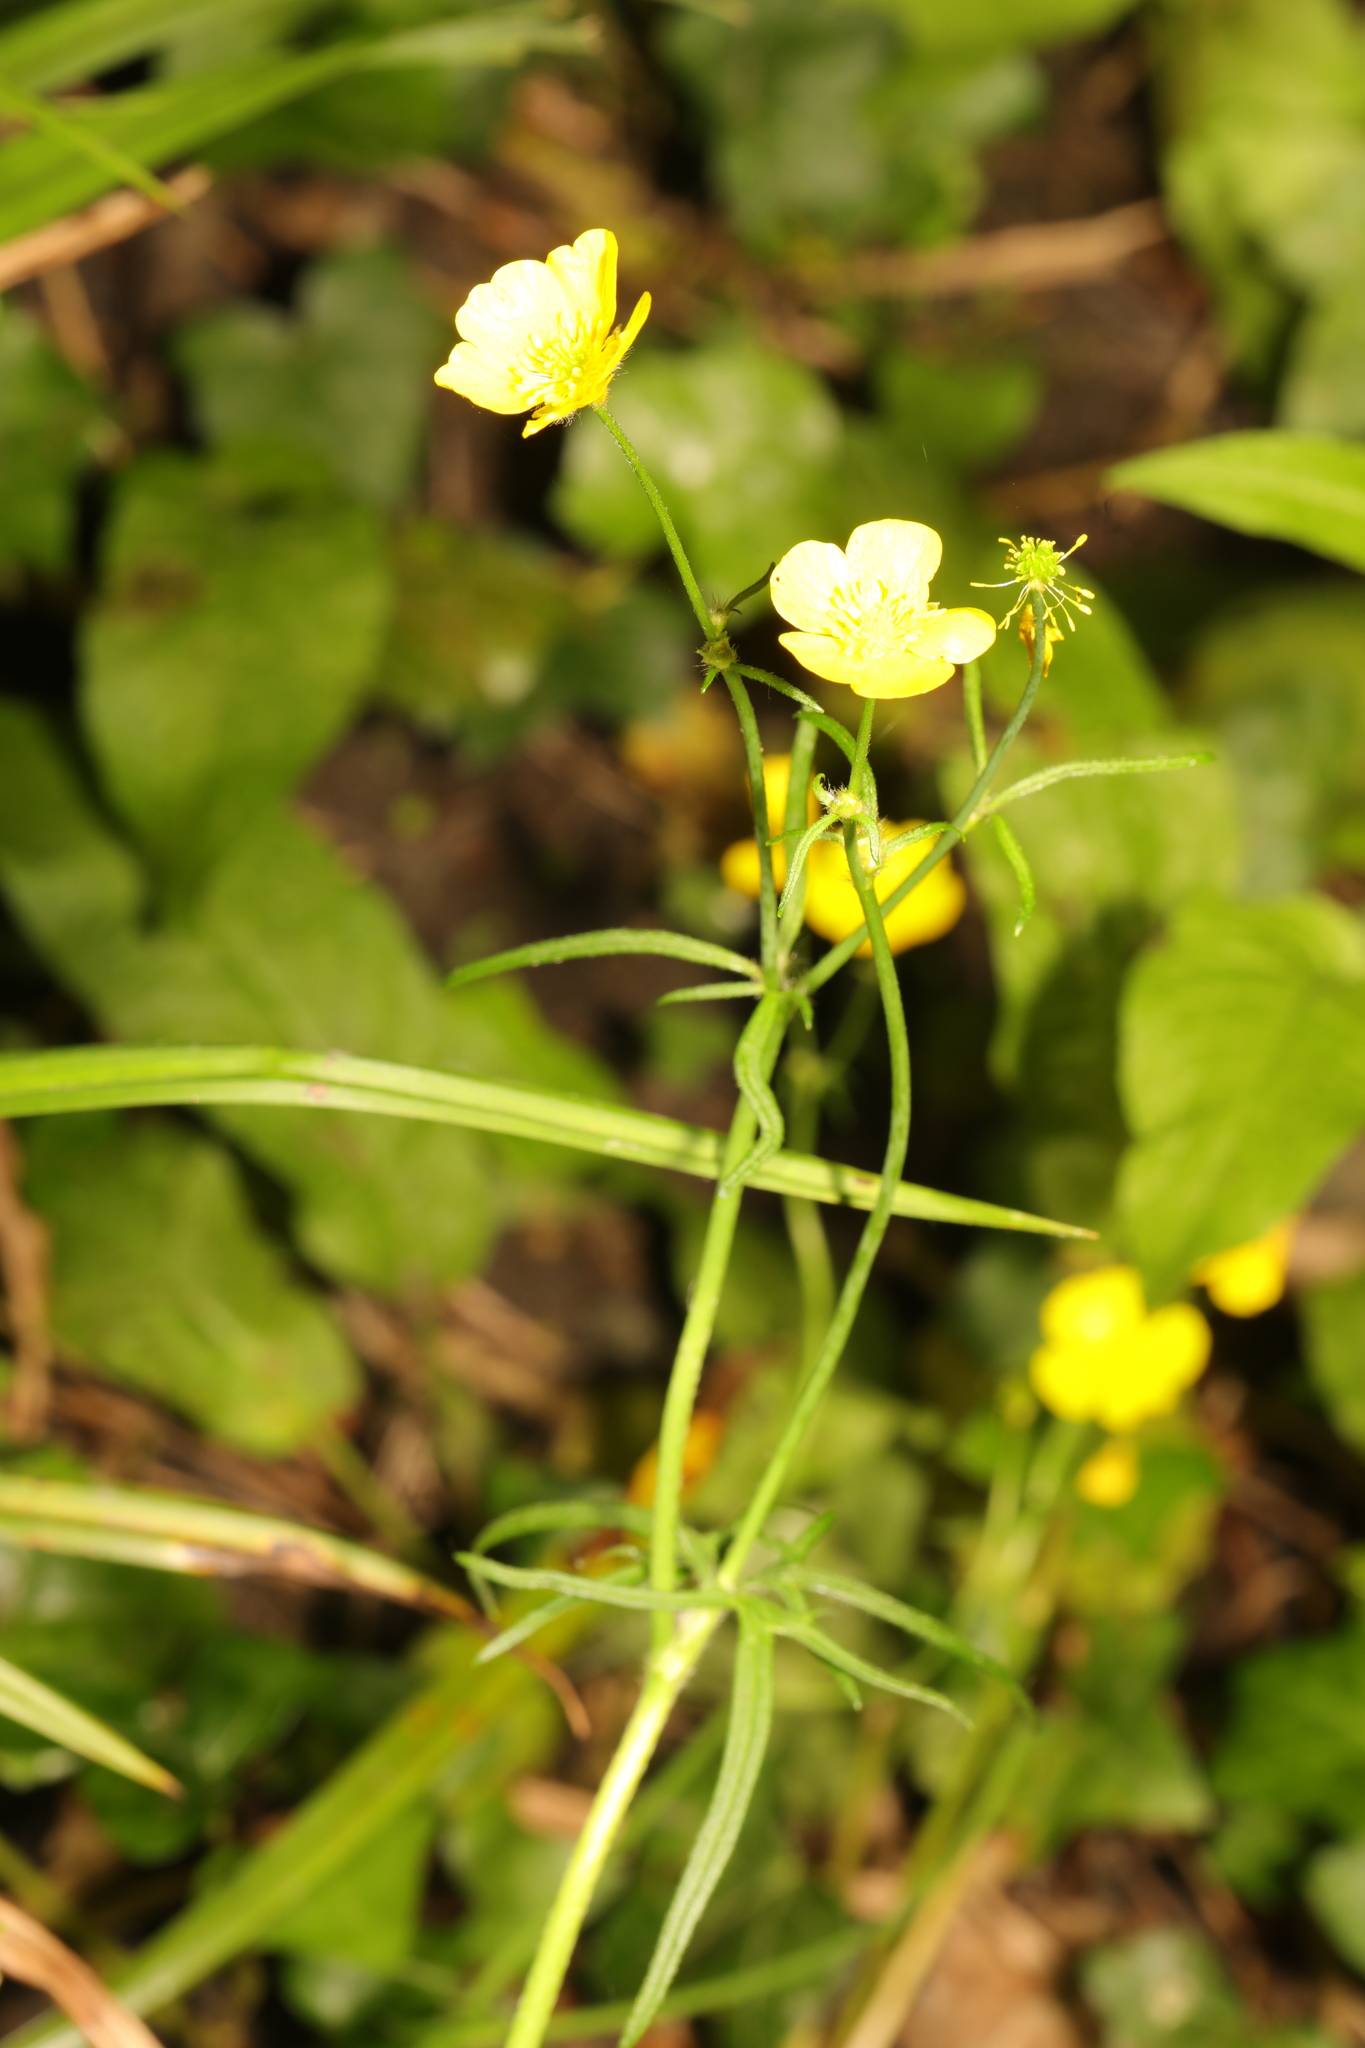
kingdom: Plantae
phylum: Tracheophyta
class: Magnoliopsida
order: Ranunculales
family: Ranunculaceae
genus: Ranunculus
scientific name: Ranunculus acris
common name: Meadow buttercup
